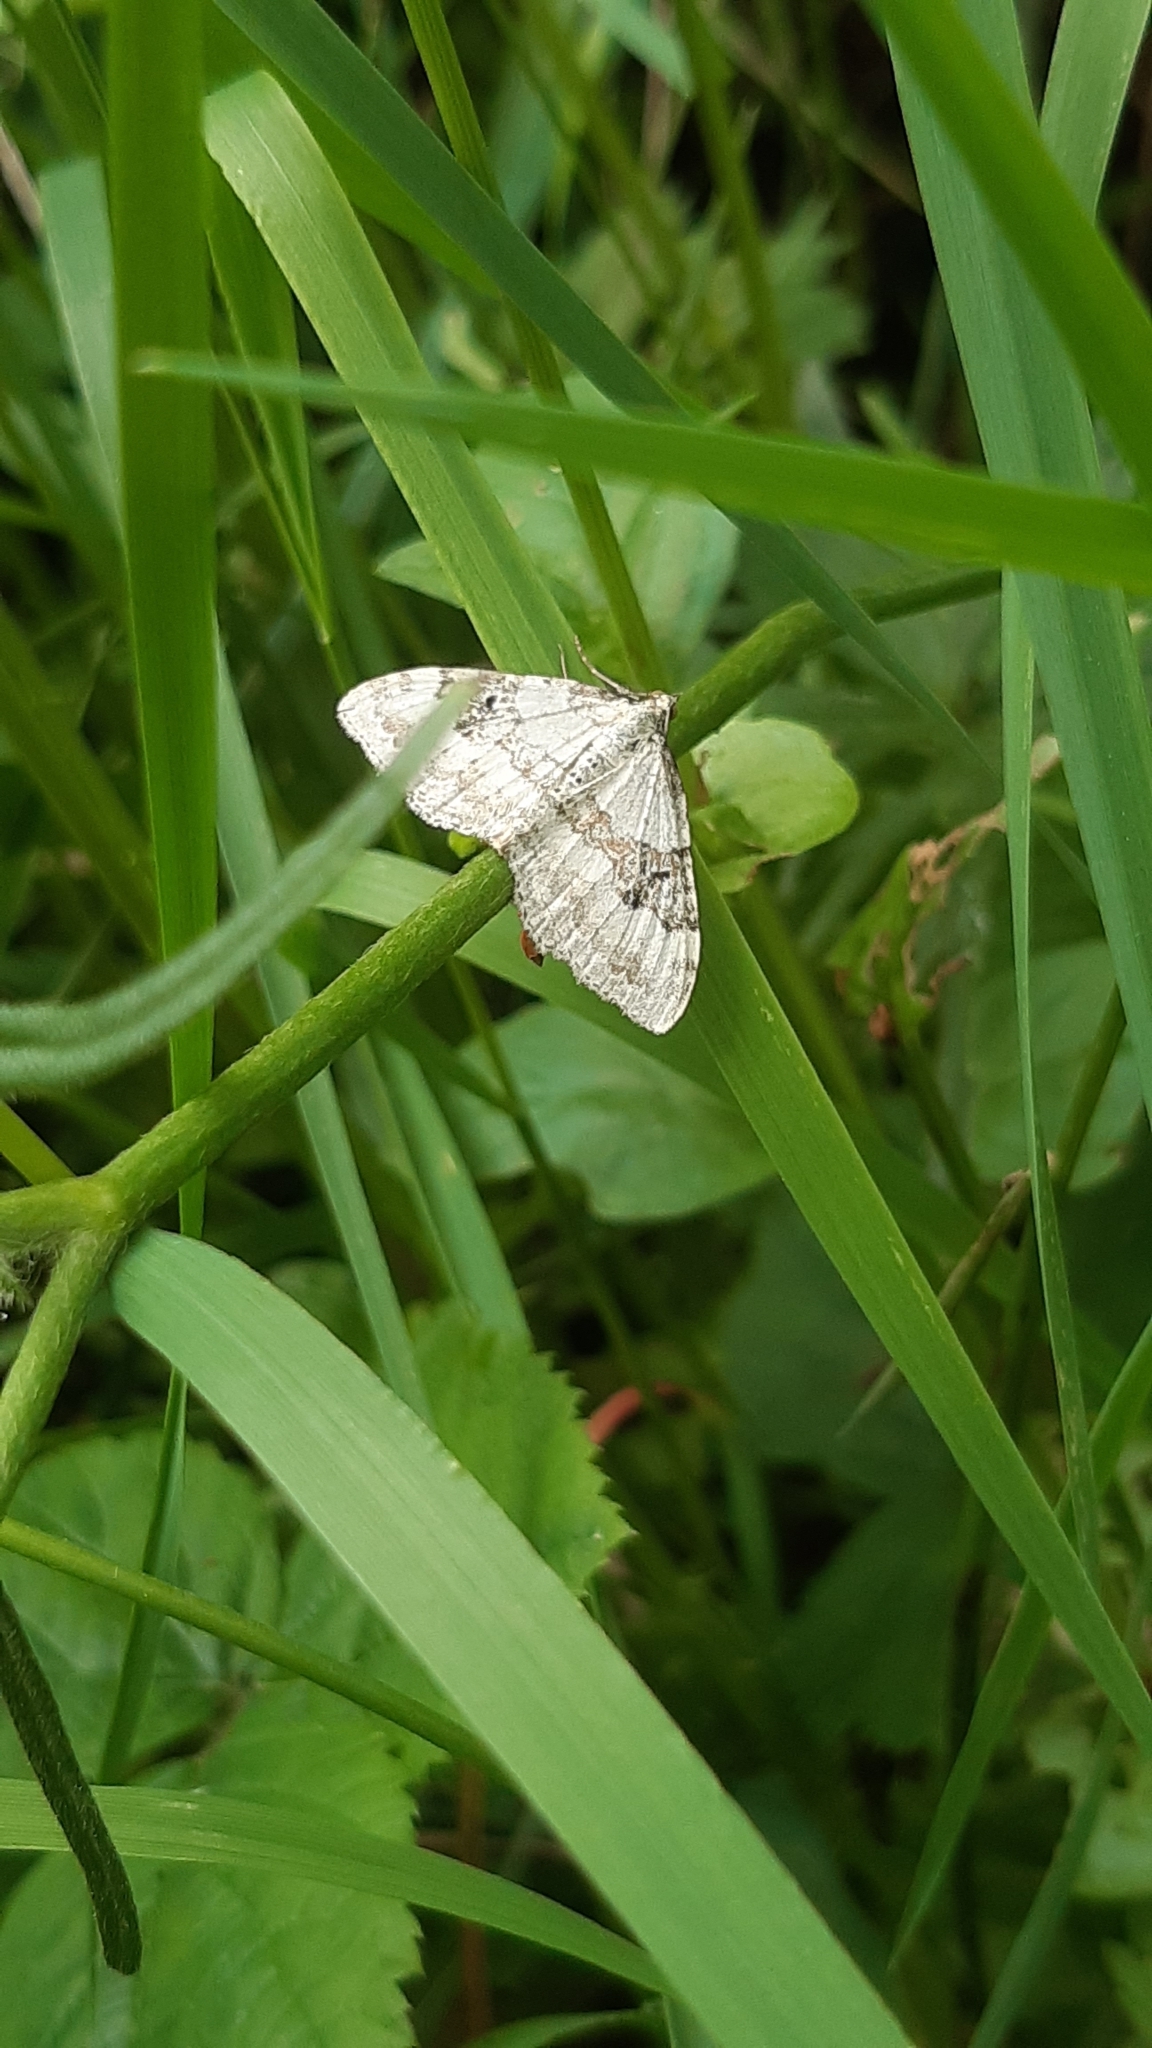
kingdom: Animalia
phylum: Arthropoda
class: Insecta
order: Lepidoptera
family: Geometridae
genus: Xanthorhoe
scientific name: Xanthorhoe montanata
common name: Silver-ground carpet
